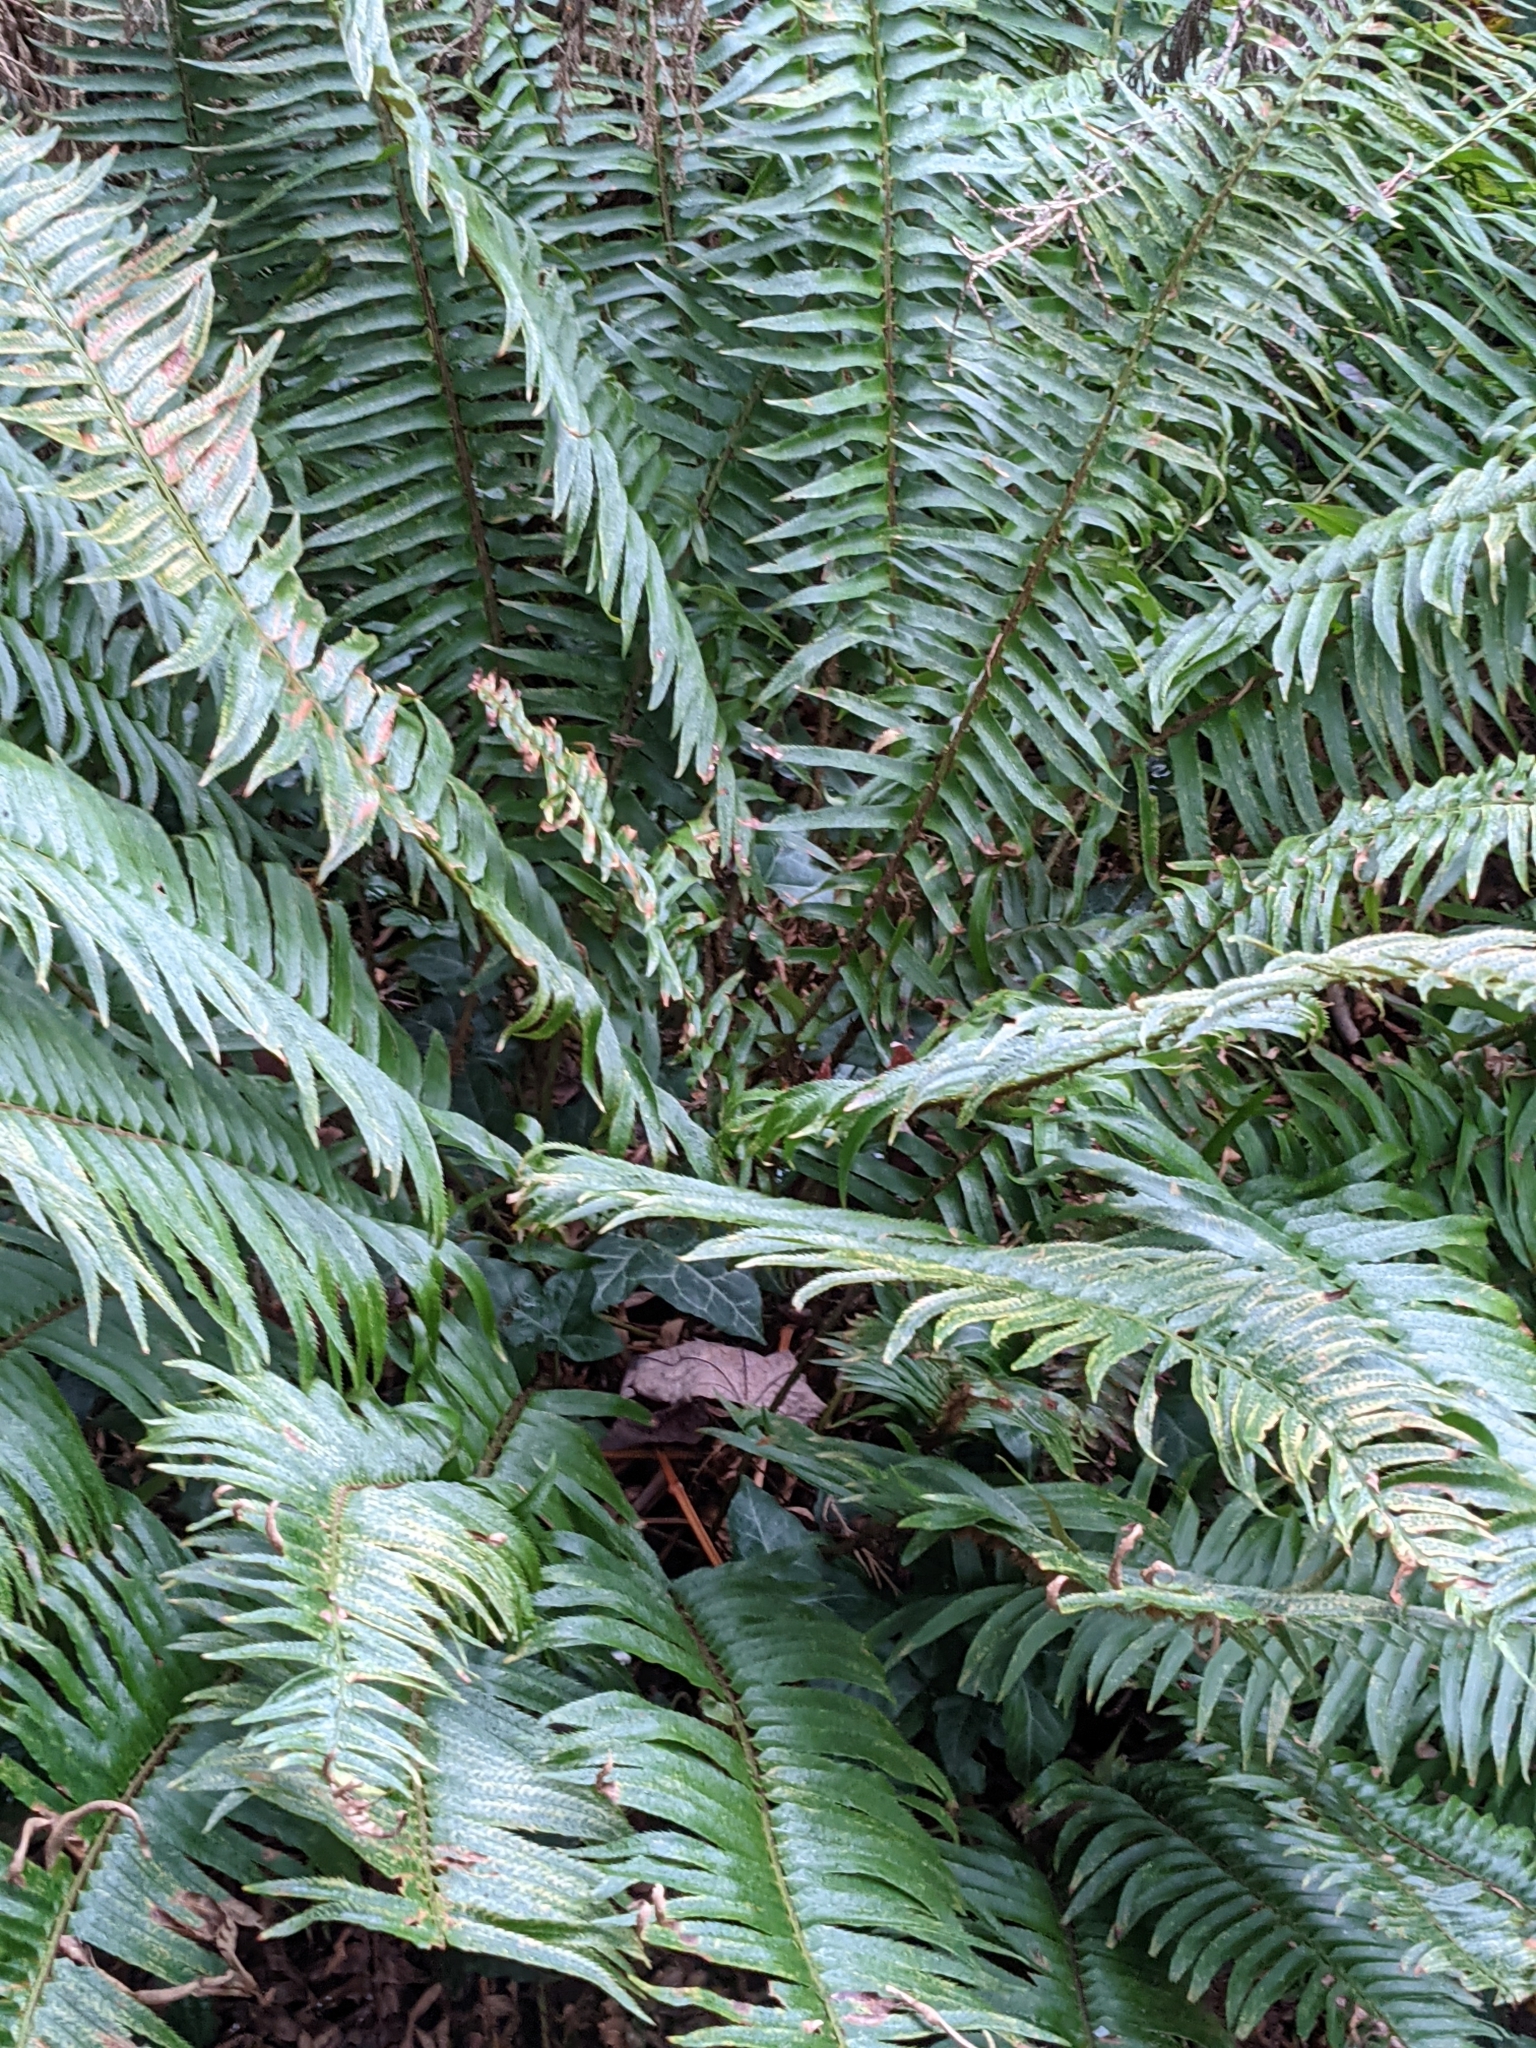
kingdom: Plantae
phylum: Tracheophyta
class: Polypodiopsida
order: Polypodiales
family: Dryopteridaceae
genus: Polystichum
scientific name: Polystichum munitum
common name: Western sword-fern
